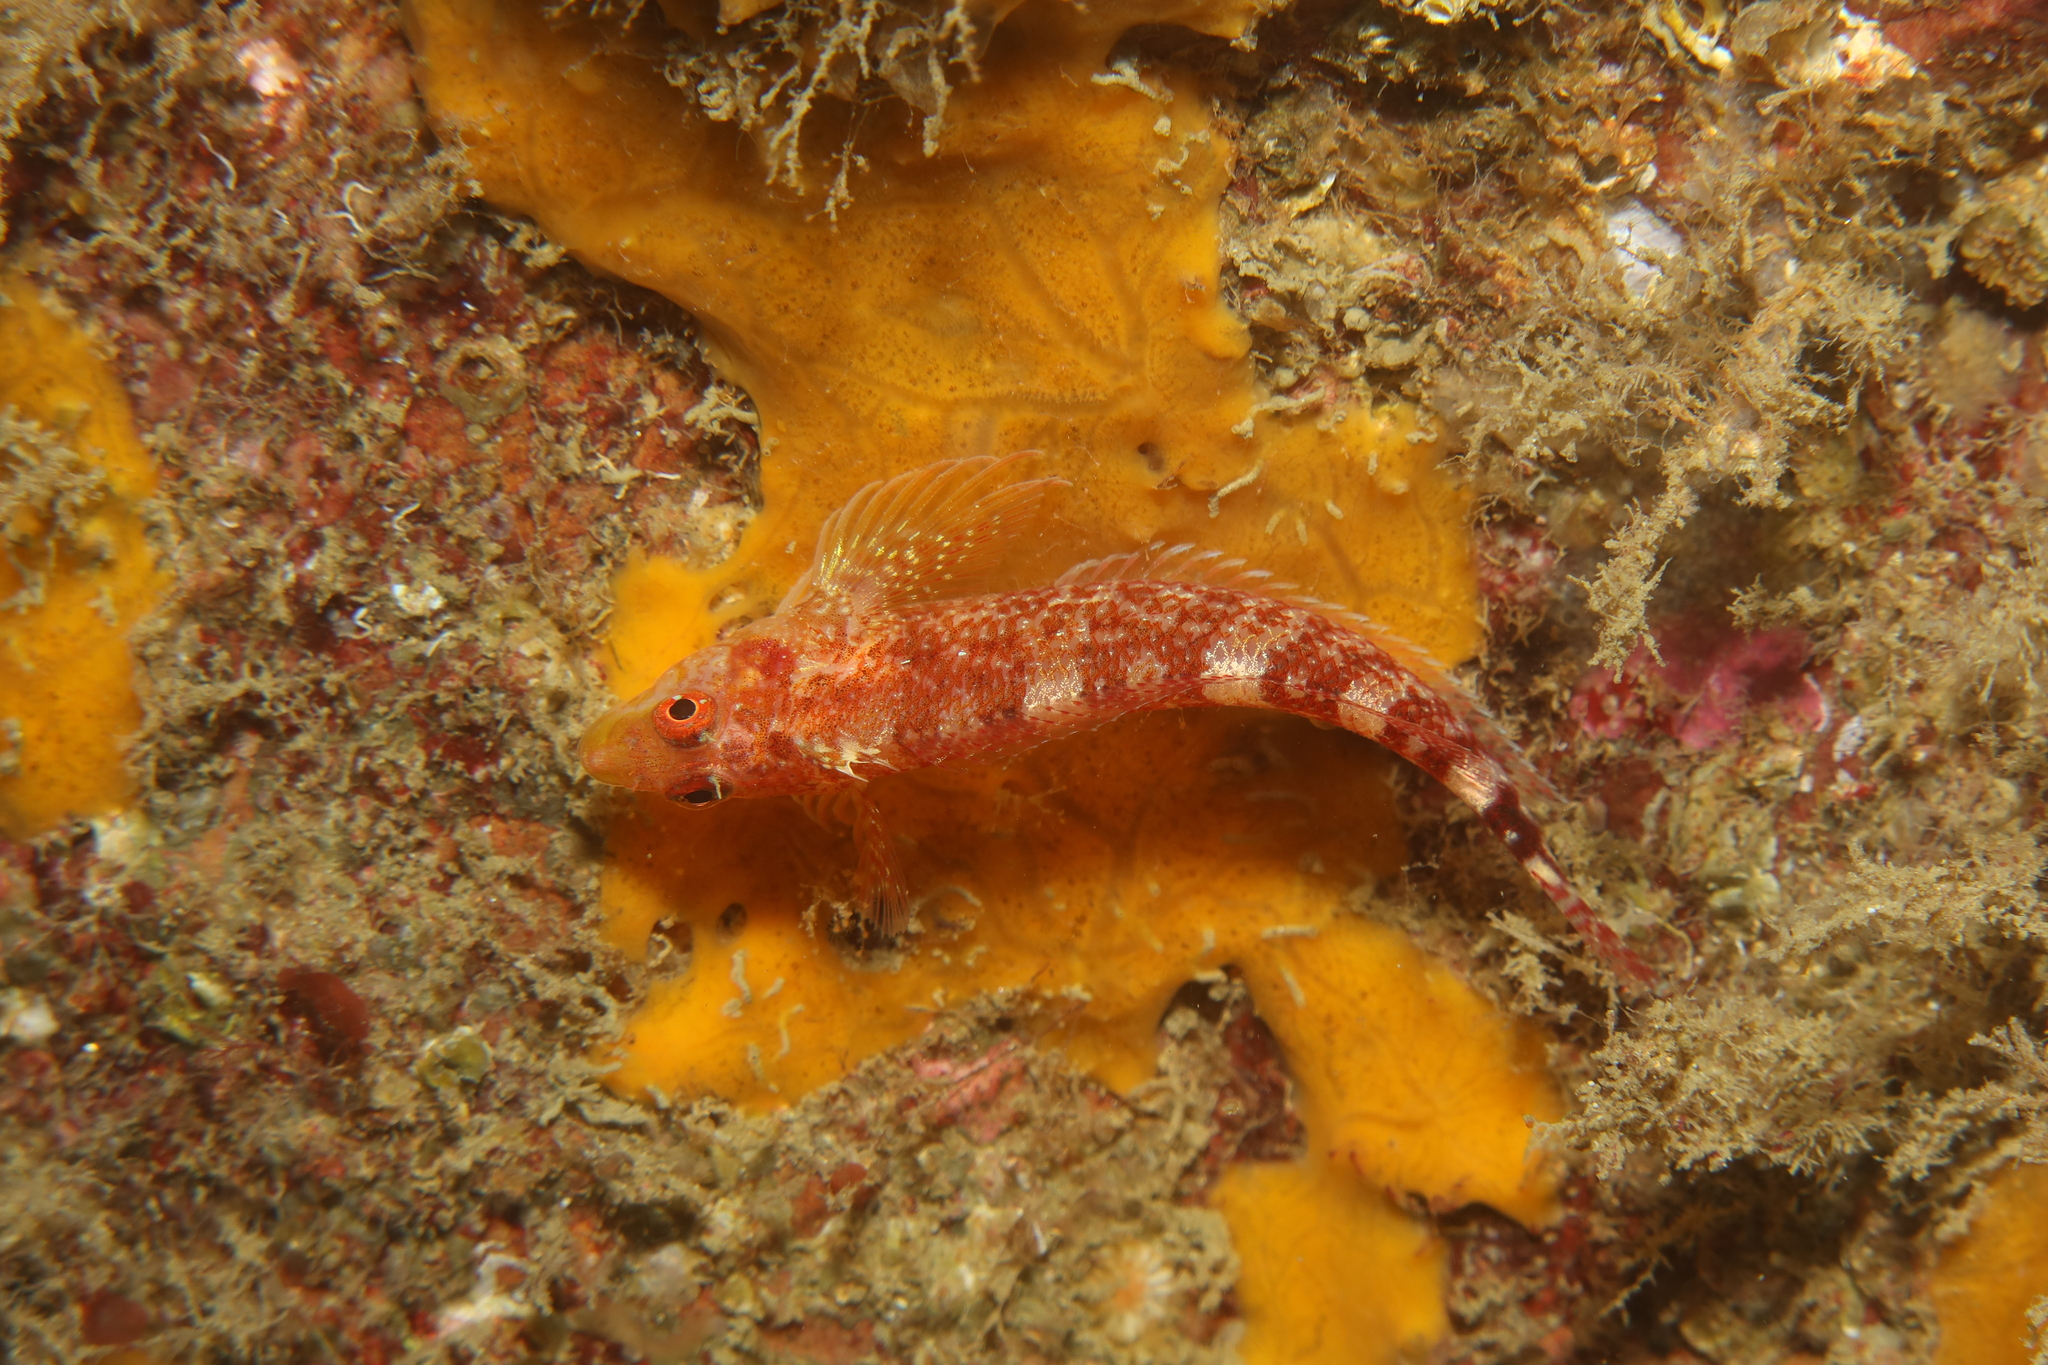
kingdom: Animalia
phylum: Chordata
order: Perciformes
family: Tripterygiidae
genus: Tripterygion
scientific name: Tripterygion delaisi
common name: Black-face blenny
